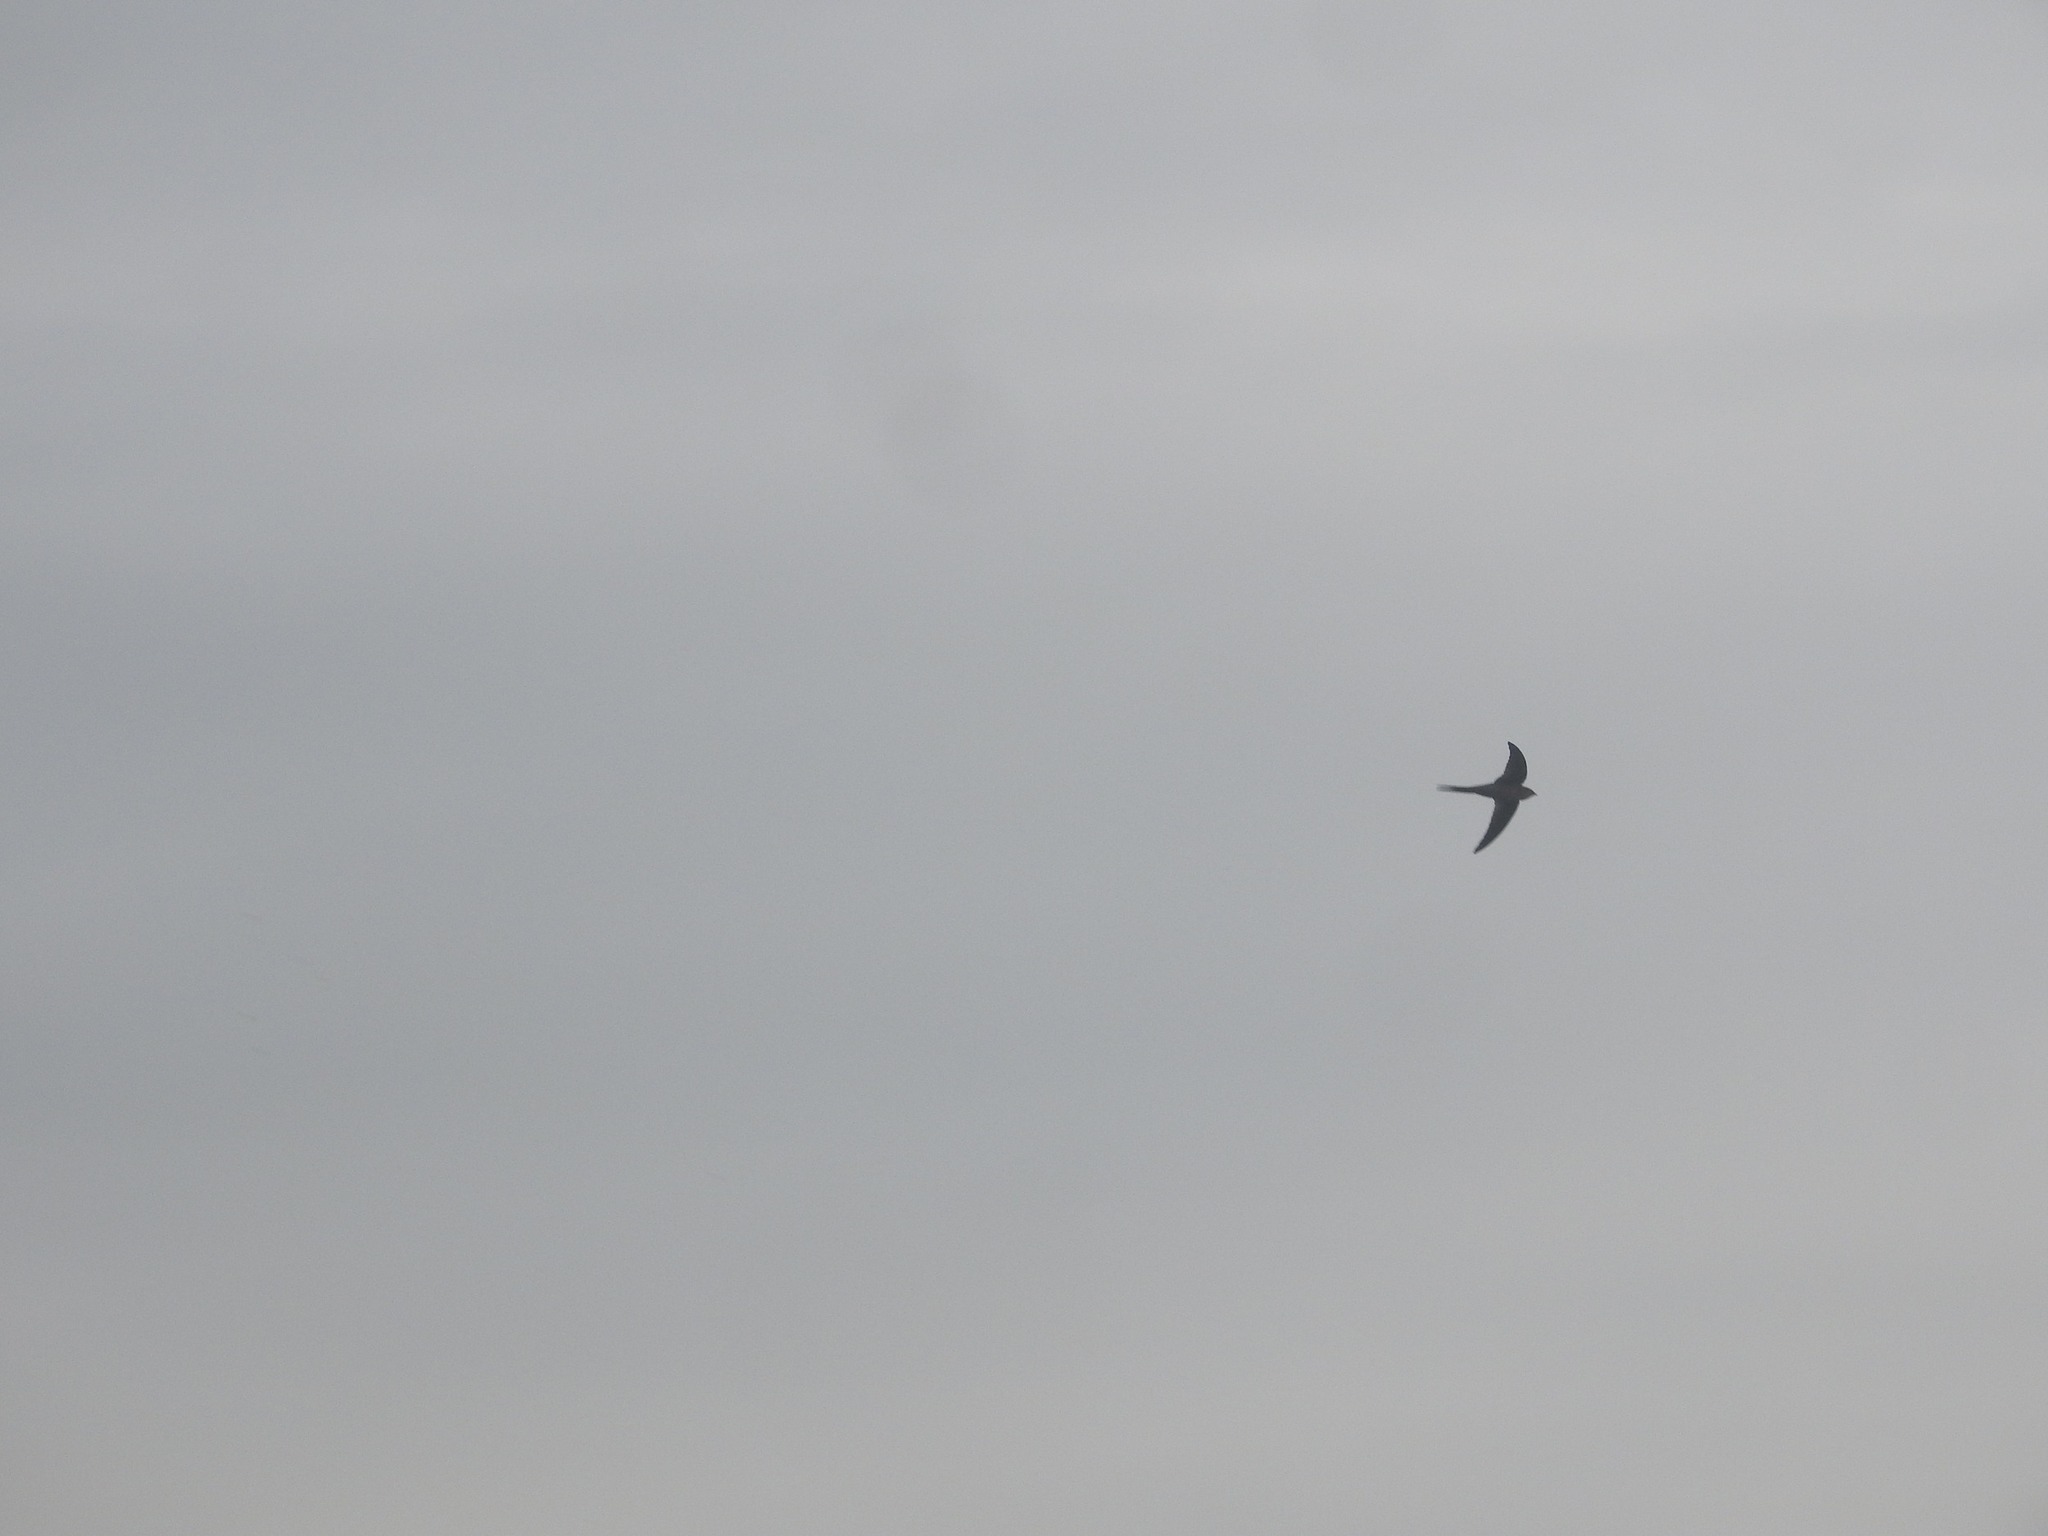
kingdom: Animalia
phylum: Chordata
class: Aves
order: Apodiformes
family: Apodidae
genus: Cypsiurus
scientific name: Cypsiurus balasiensis
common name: Asian palm swift
